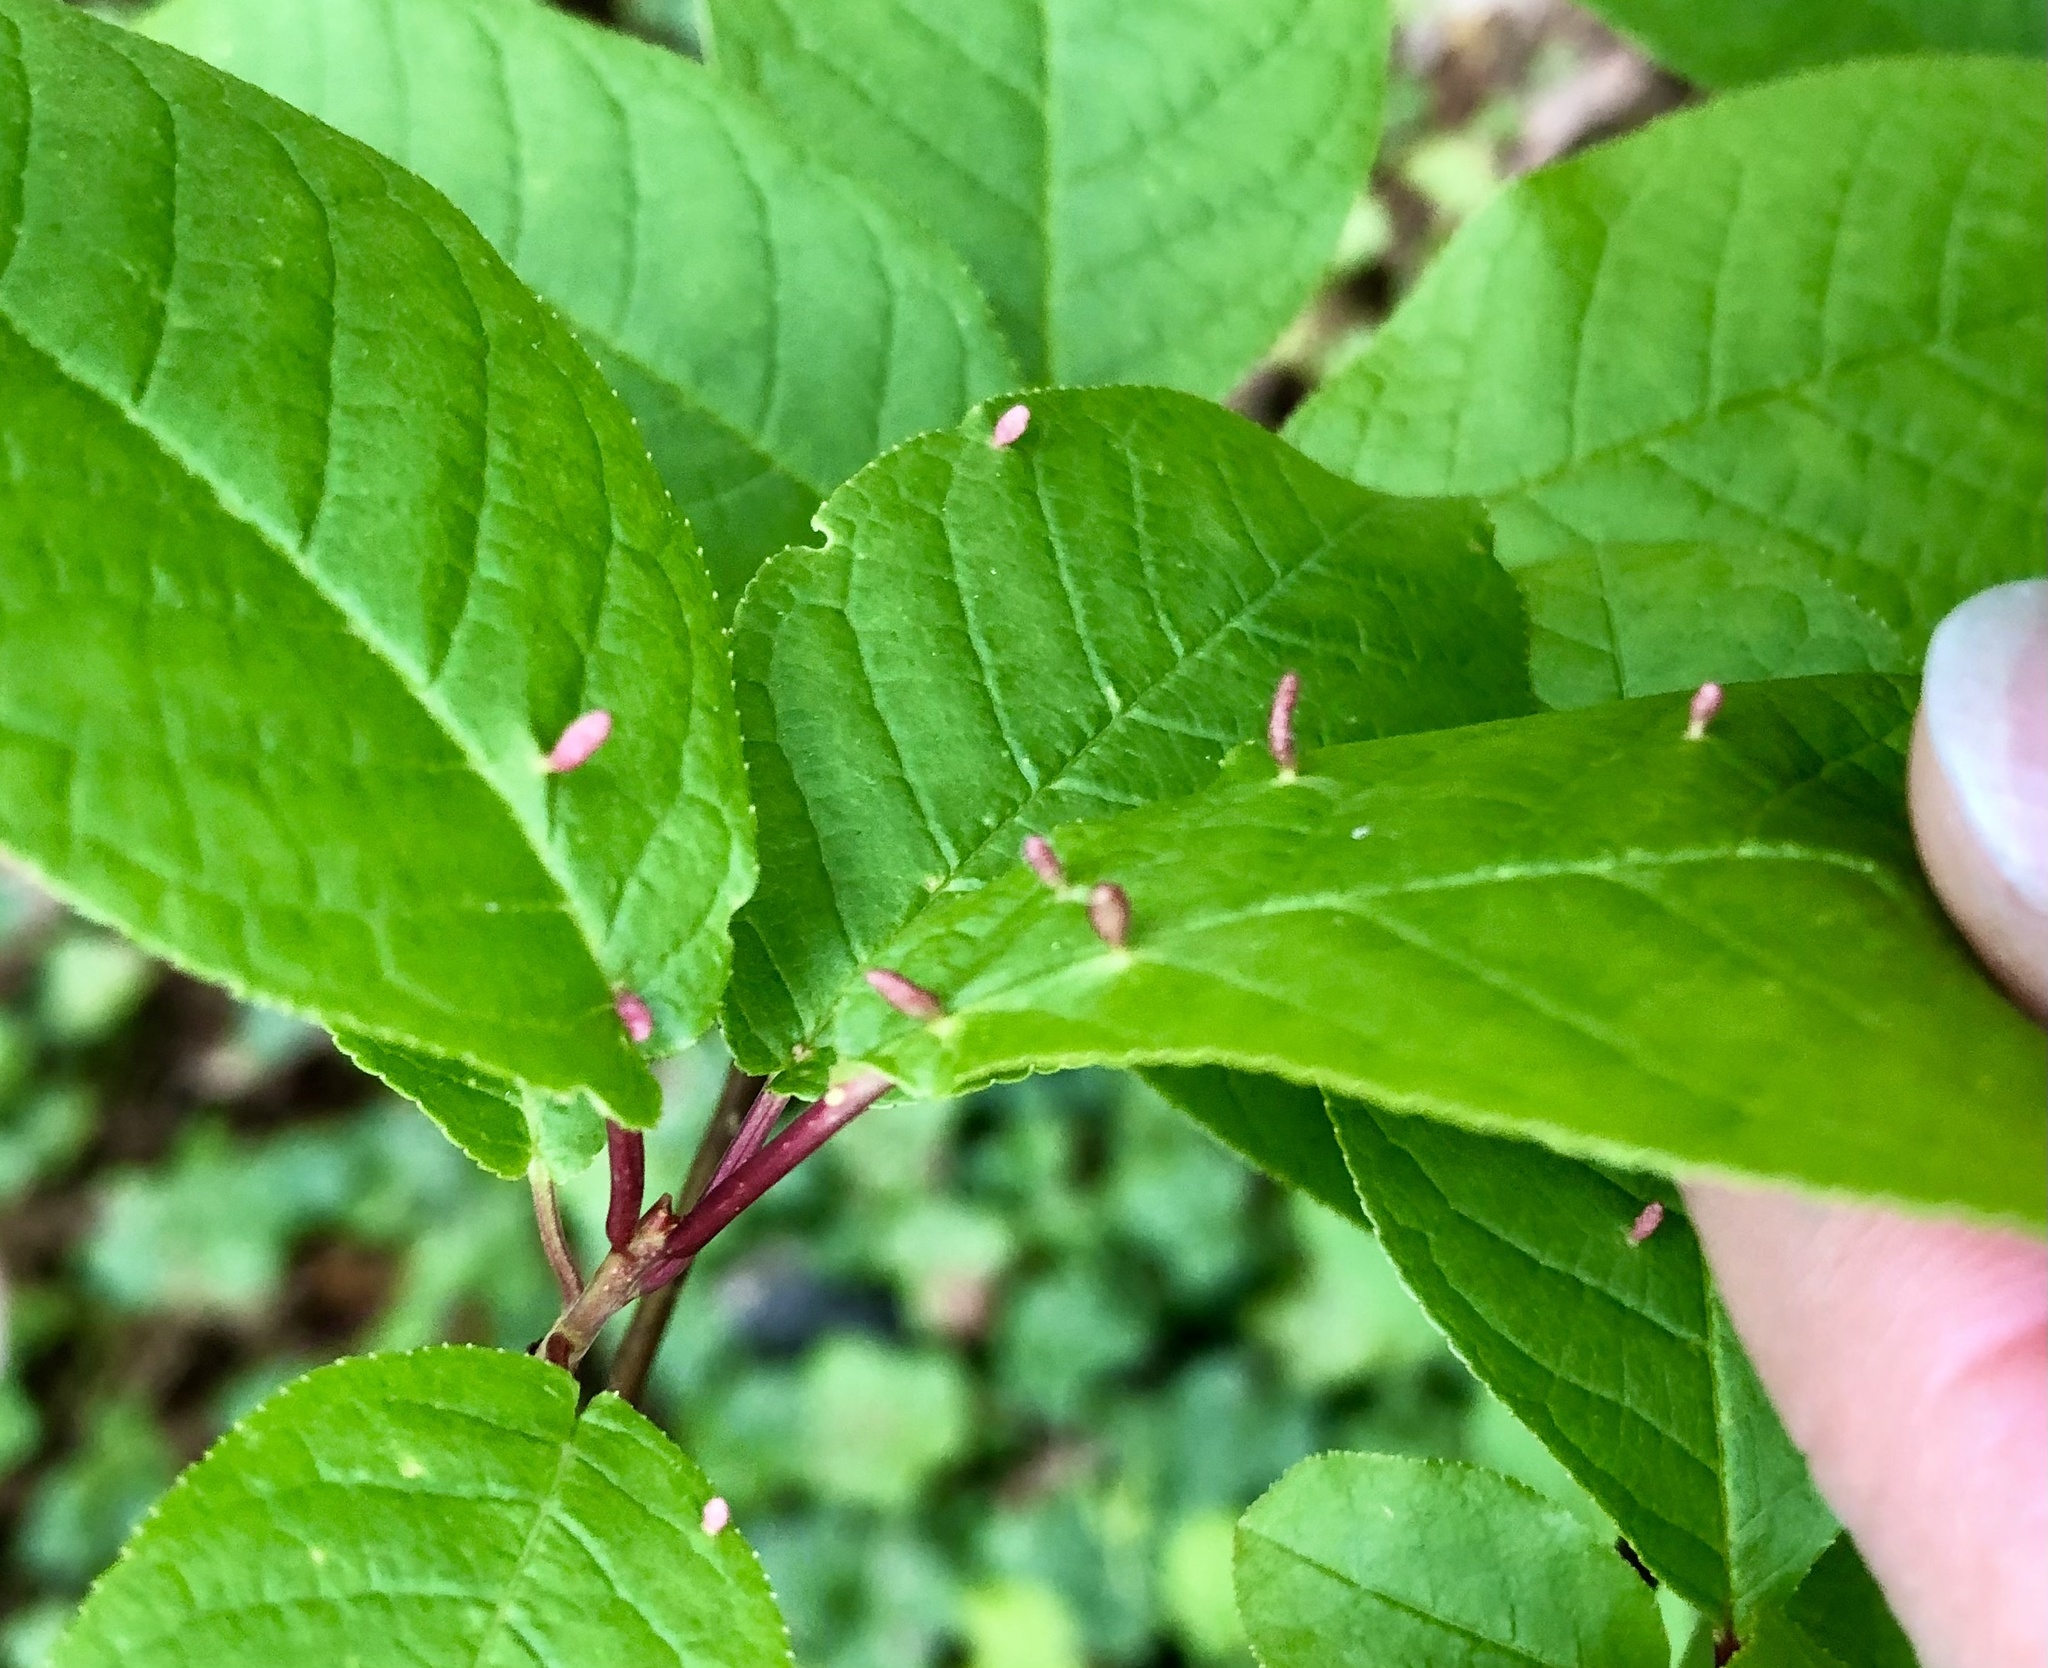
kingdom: Animalia
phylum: Arthropoda
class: Arachnida
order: Trombidiformes
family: Eriophyidae
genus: Phyllocoptes
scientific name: Phyllocoptes eupadi
